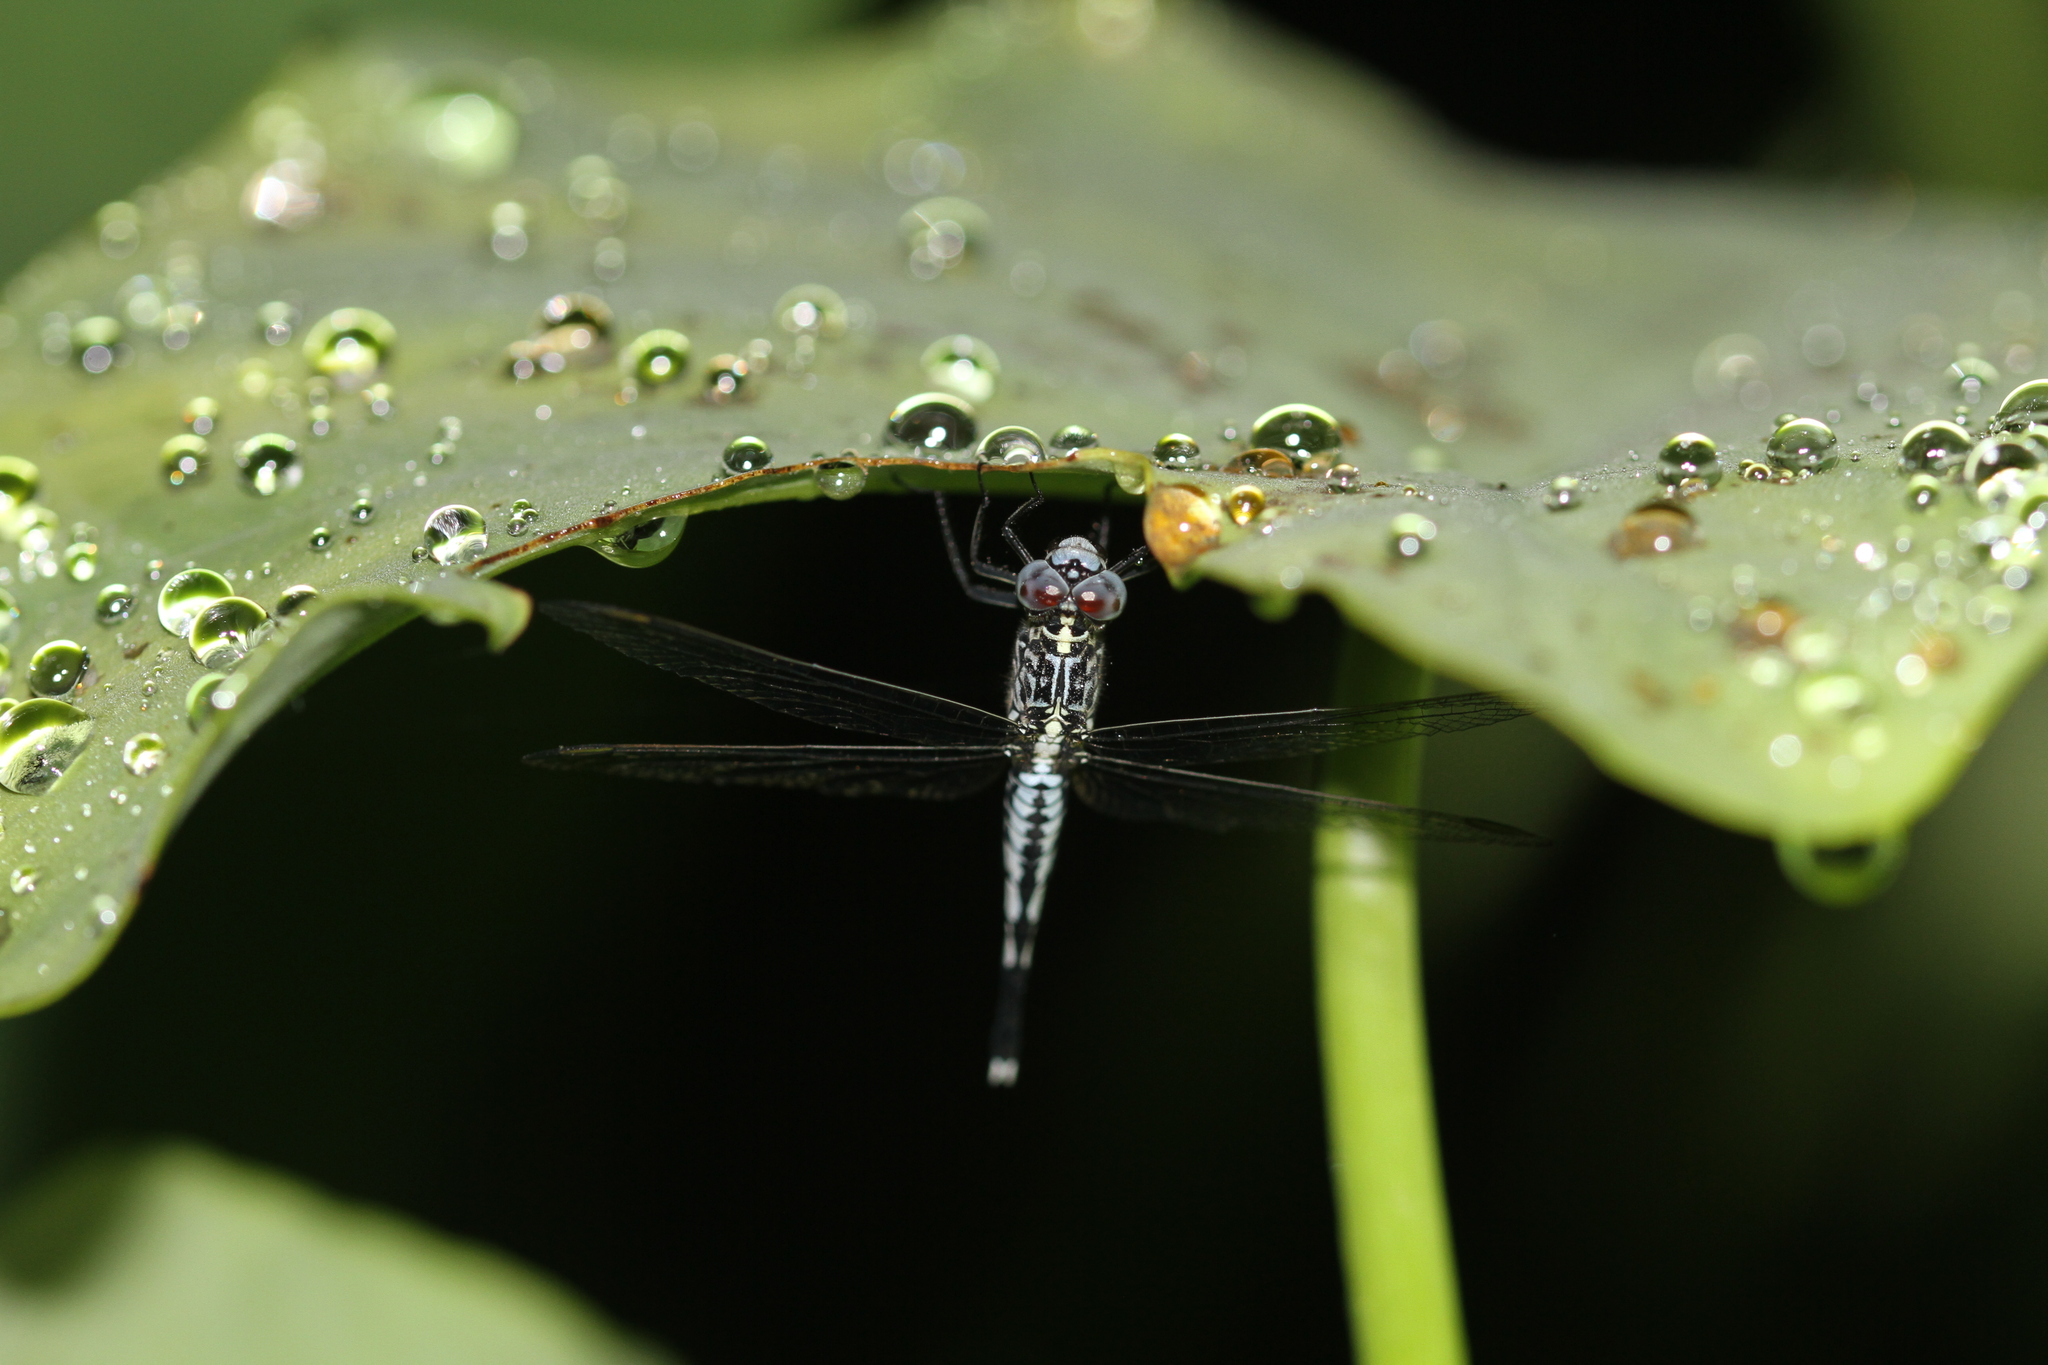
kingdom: Animalia
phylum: Arthropoda
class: Insecta
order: Odonata
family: Libellulidae
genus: Acisoma
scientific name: Acisoma panorpoides
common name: Asian pintail
